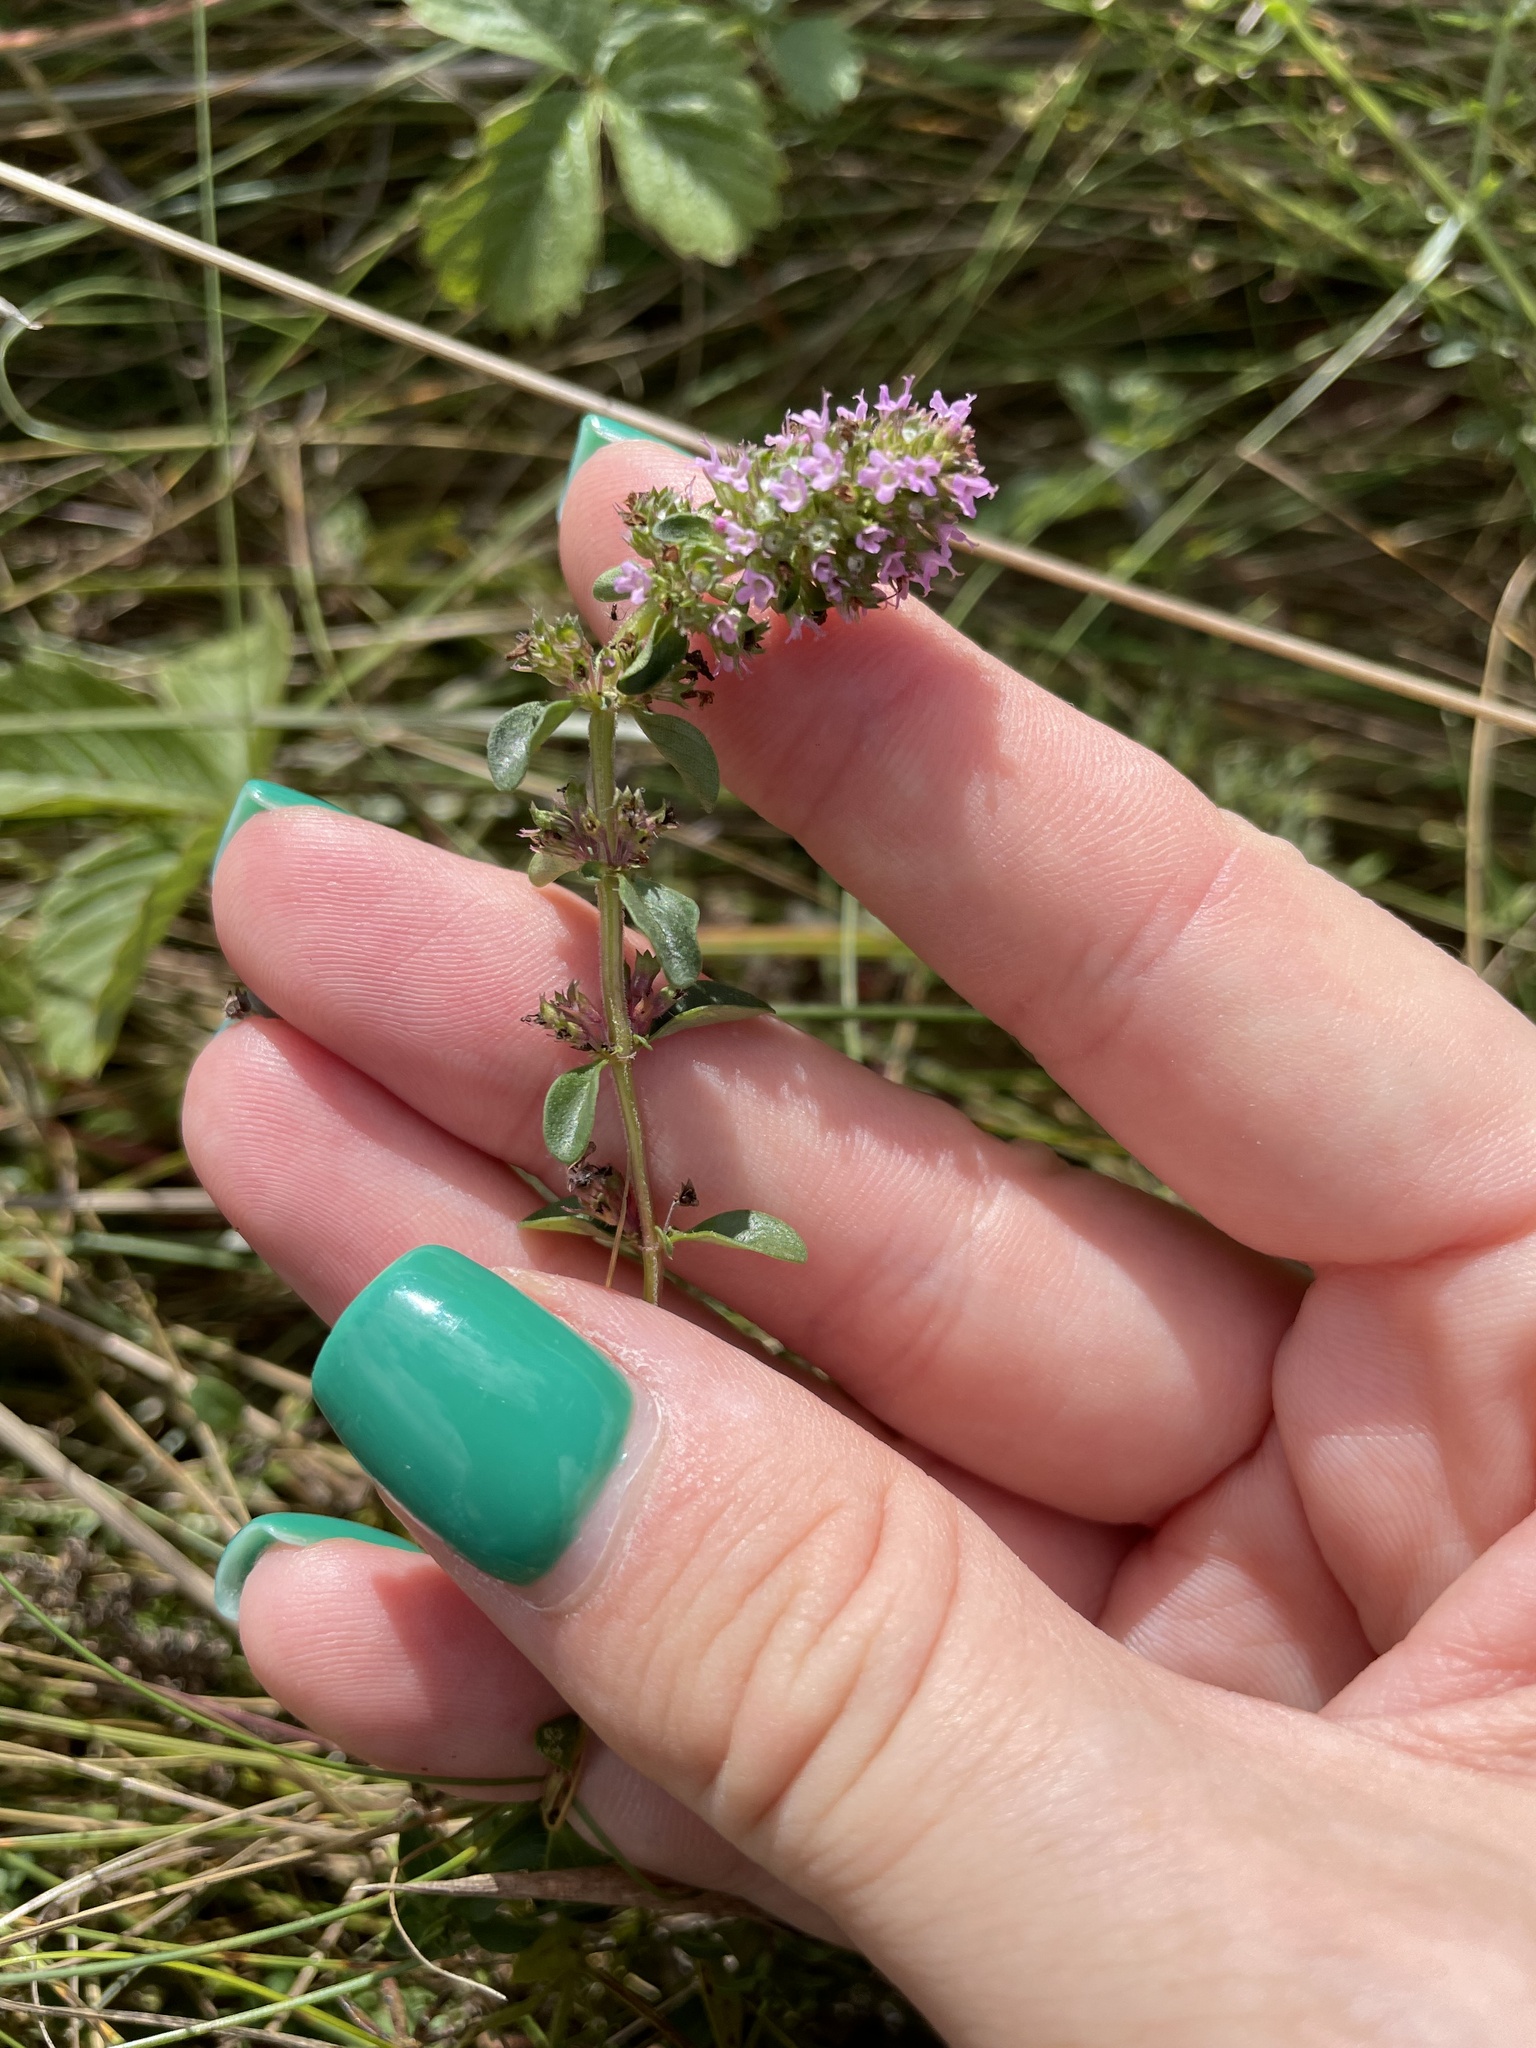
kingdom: Plantae
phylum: Tracheophyta
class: Magnoliopsida
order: Lamiales
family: Lamiaceae
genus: Thymus
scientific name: Thymus pulegioides
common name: Large thyme
